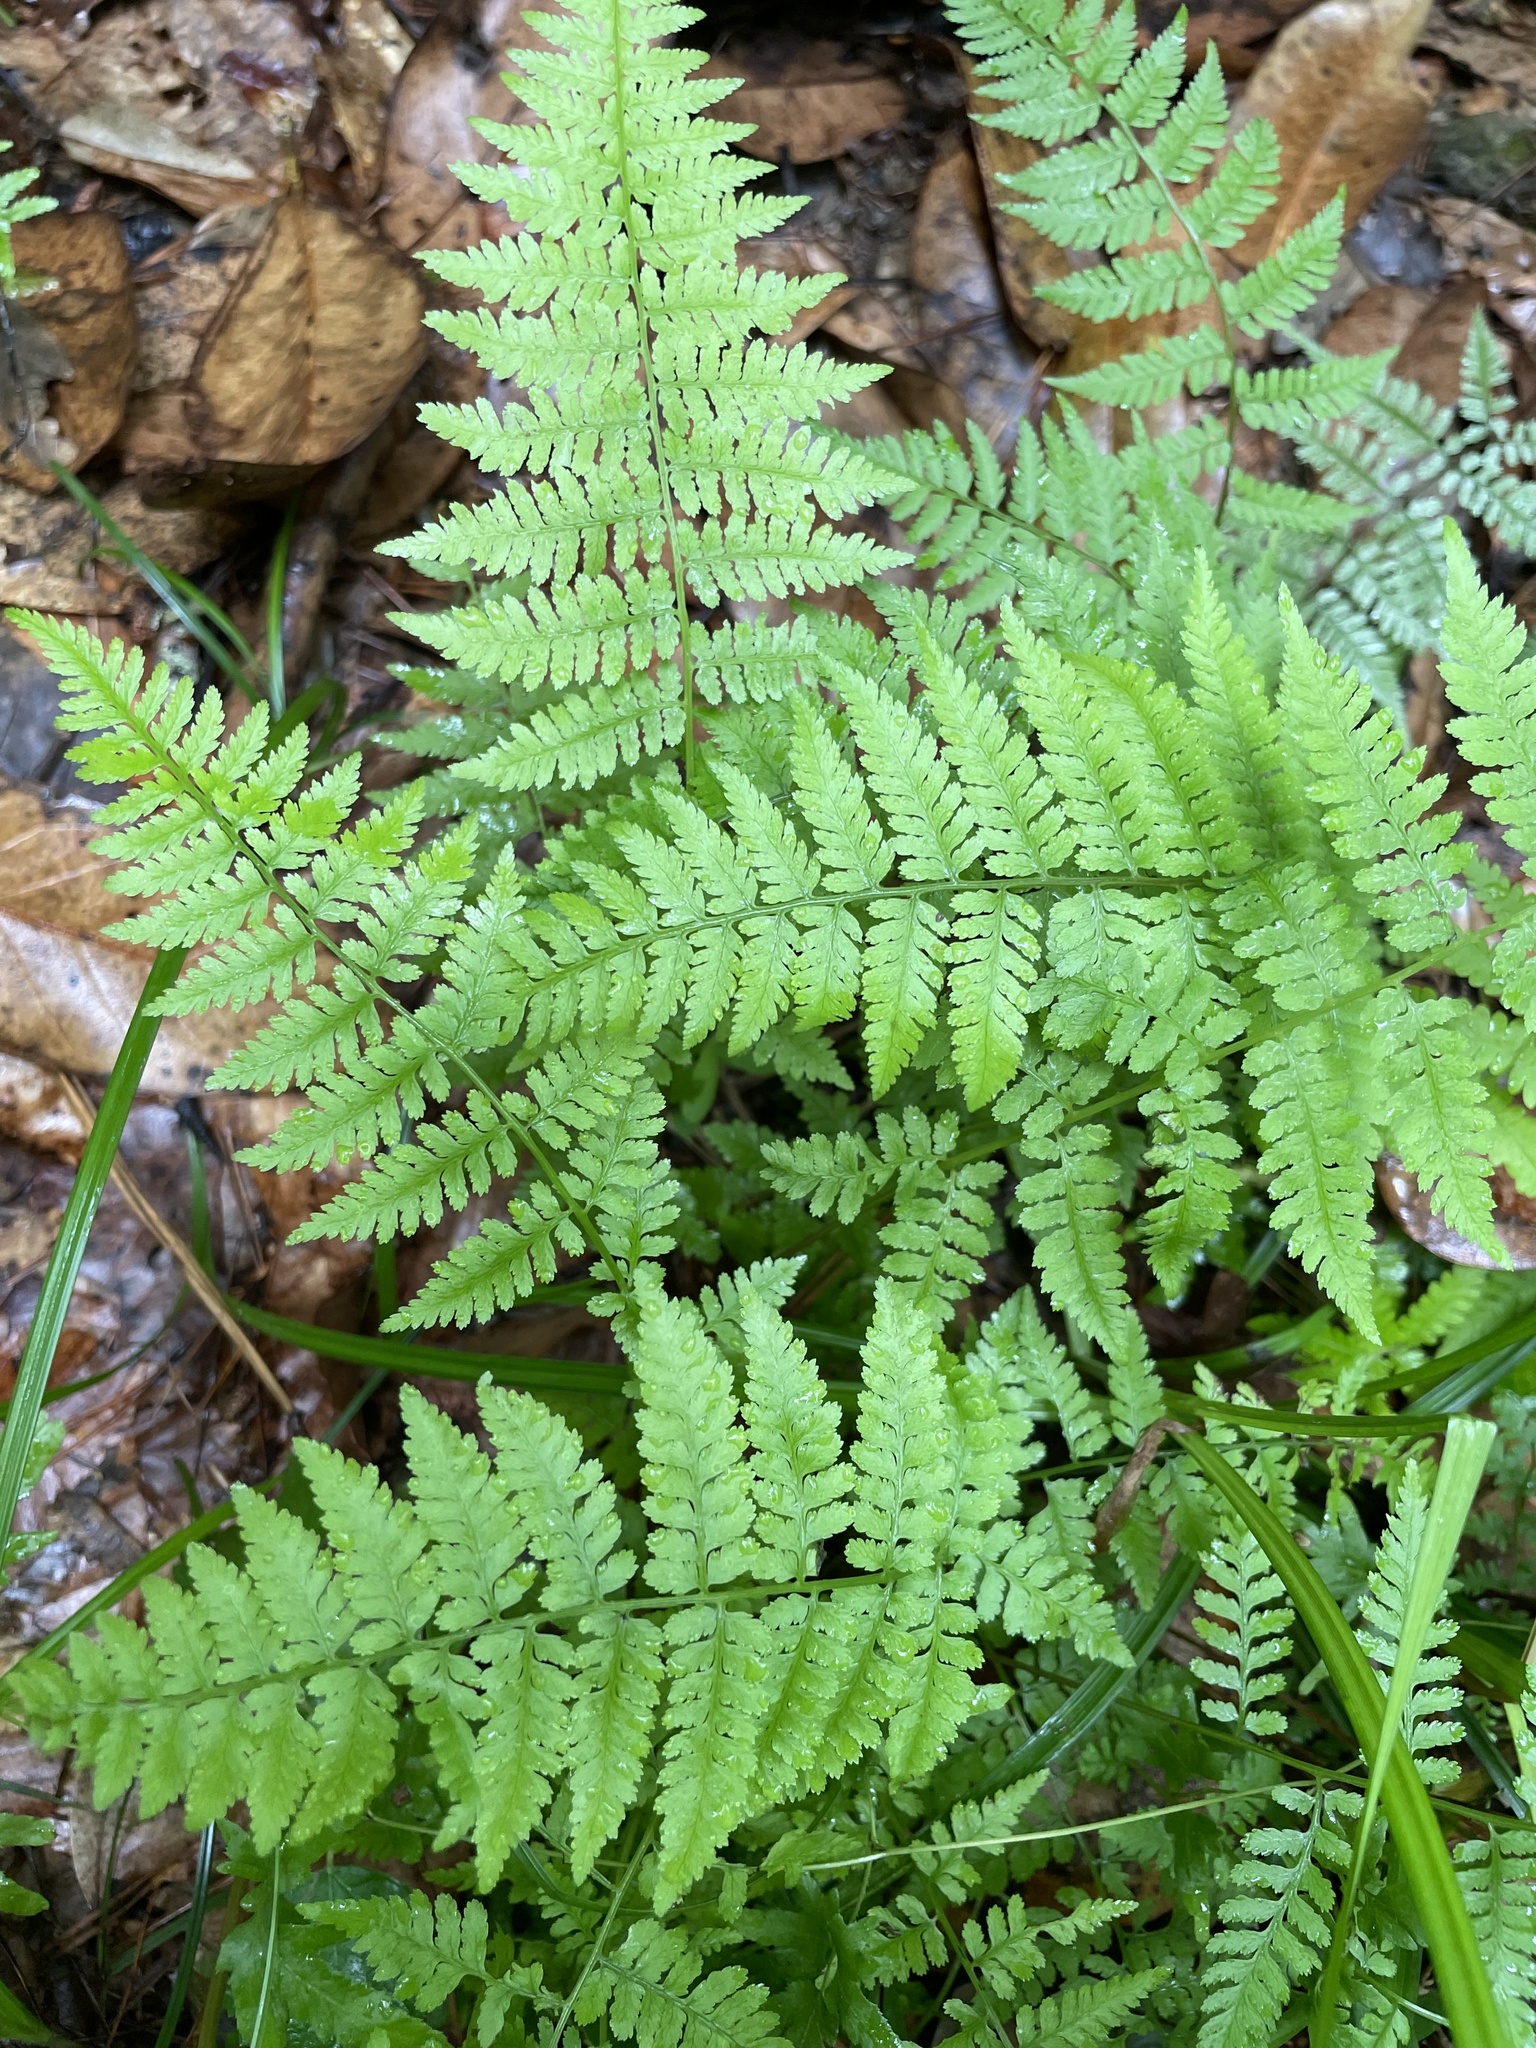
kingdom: Plantae
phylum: Tracheophyta
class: Polypodiopsida
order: Polypodiales
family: Athyriaceae
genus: Athyrium
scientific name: Athyrium asplenioides
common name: Southern lady fern
